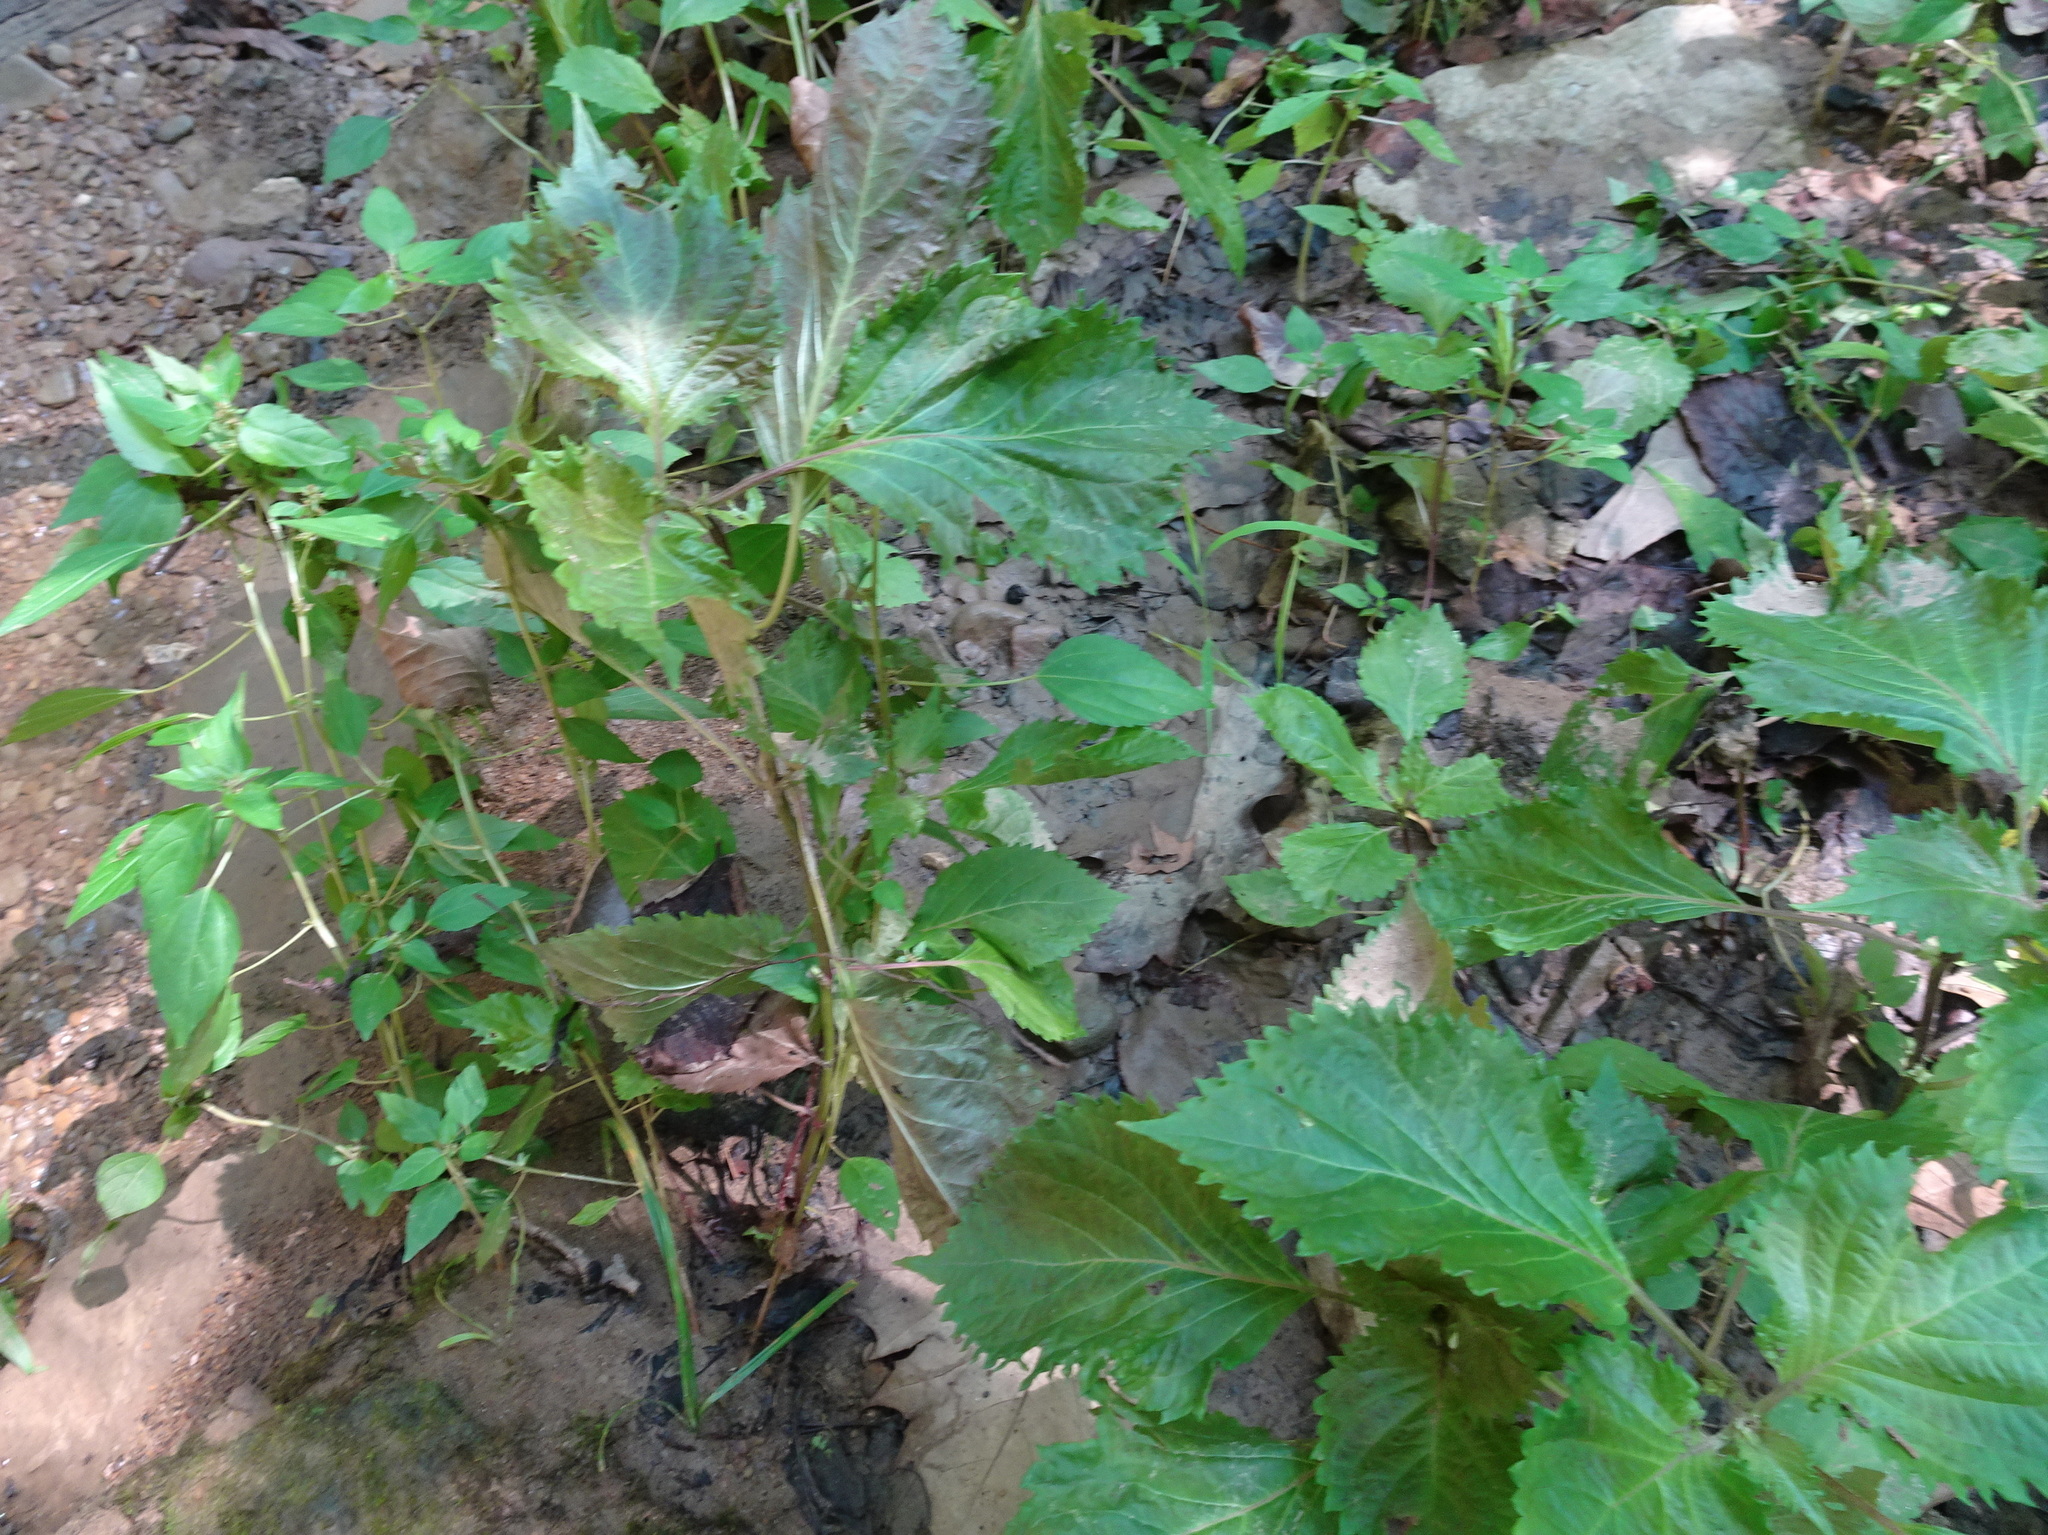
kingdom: Plantae
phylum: Tracheophyta
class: Magnoliopsida
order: Lamiales
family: Lamiaceae
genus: Perilla
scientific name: Perilla frutescens
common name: Perilla
